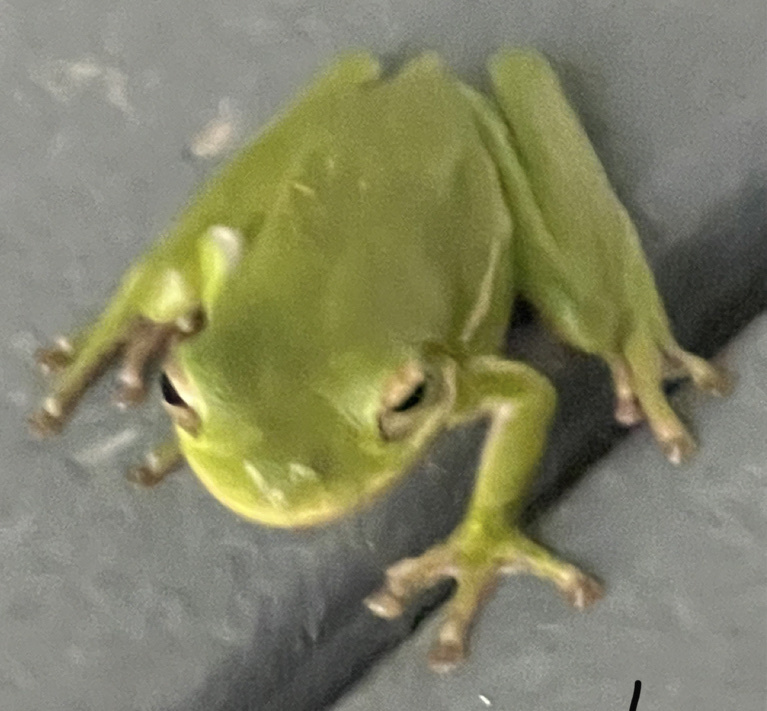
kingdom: Animalia
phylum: Chordata
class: Amphibia
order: Anura
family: Hylidae
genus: Dryophytes
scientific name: Dryophytes cinereus
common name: Green treefrog
